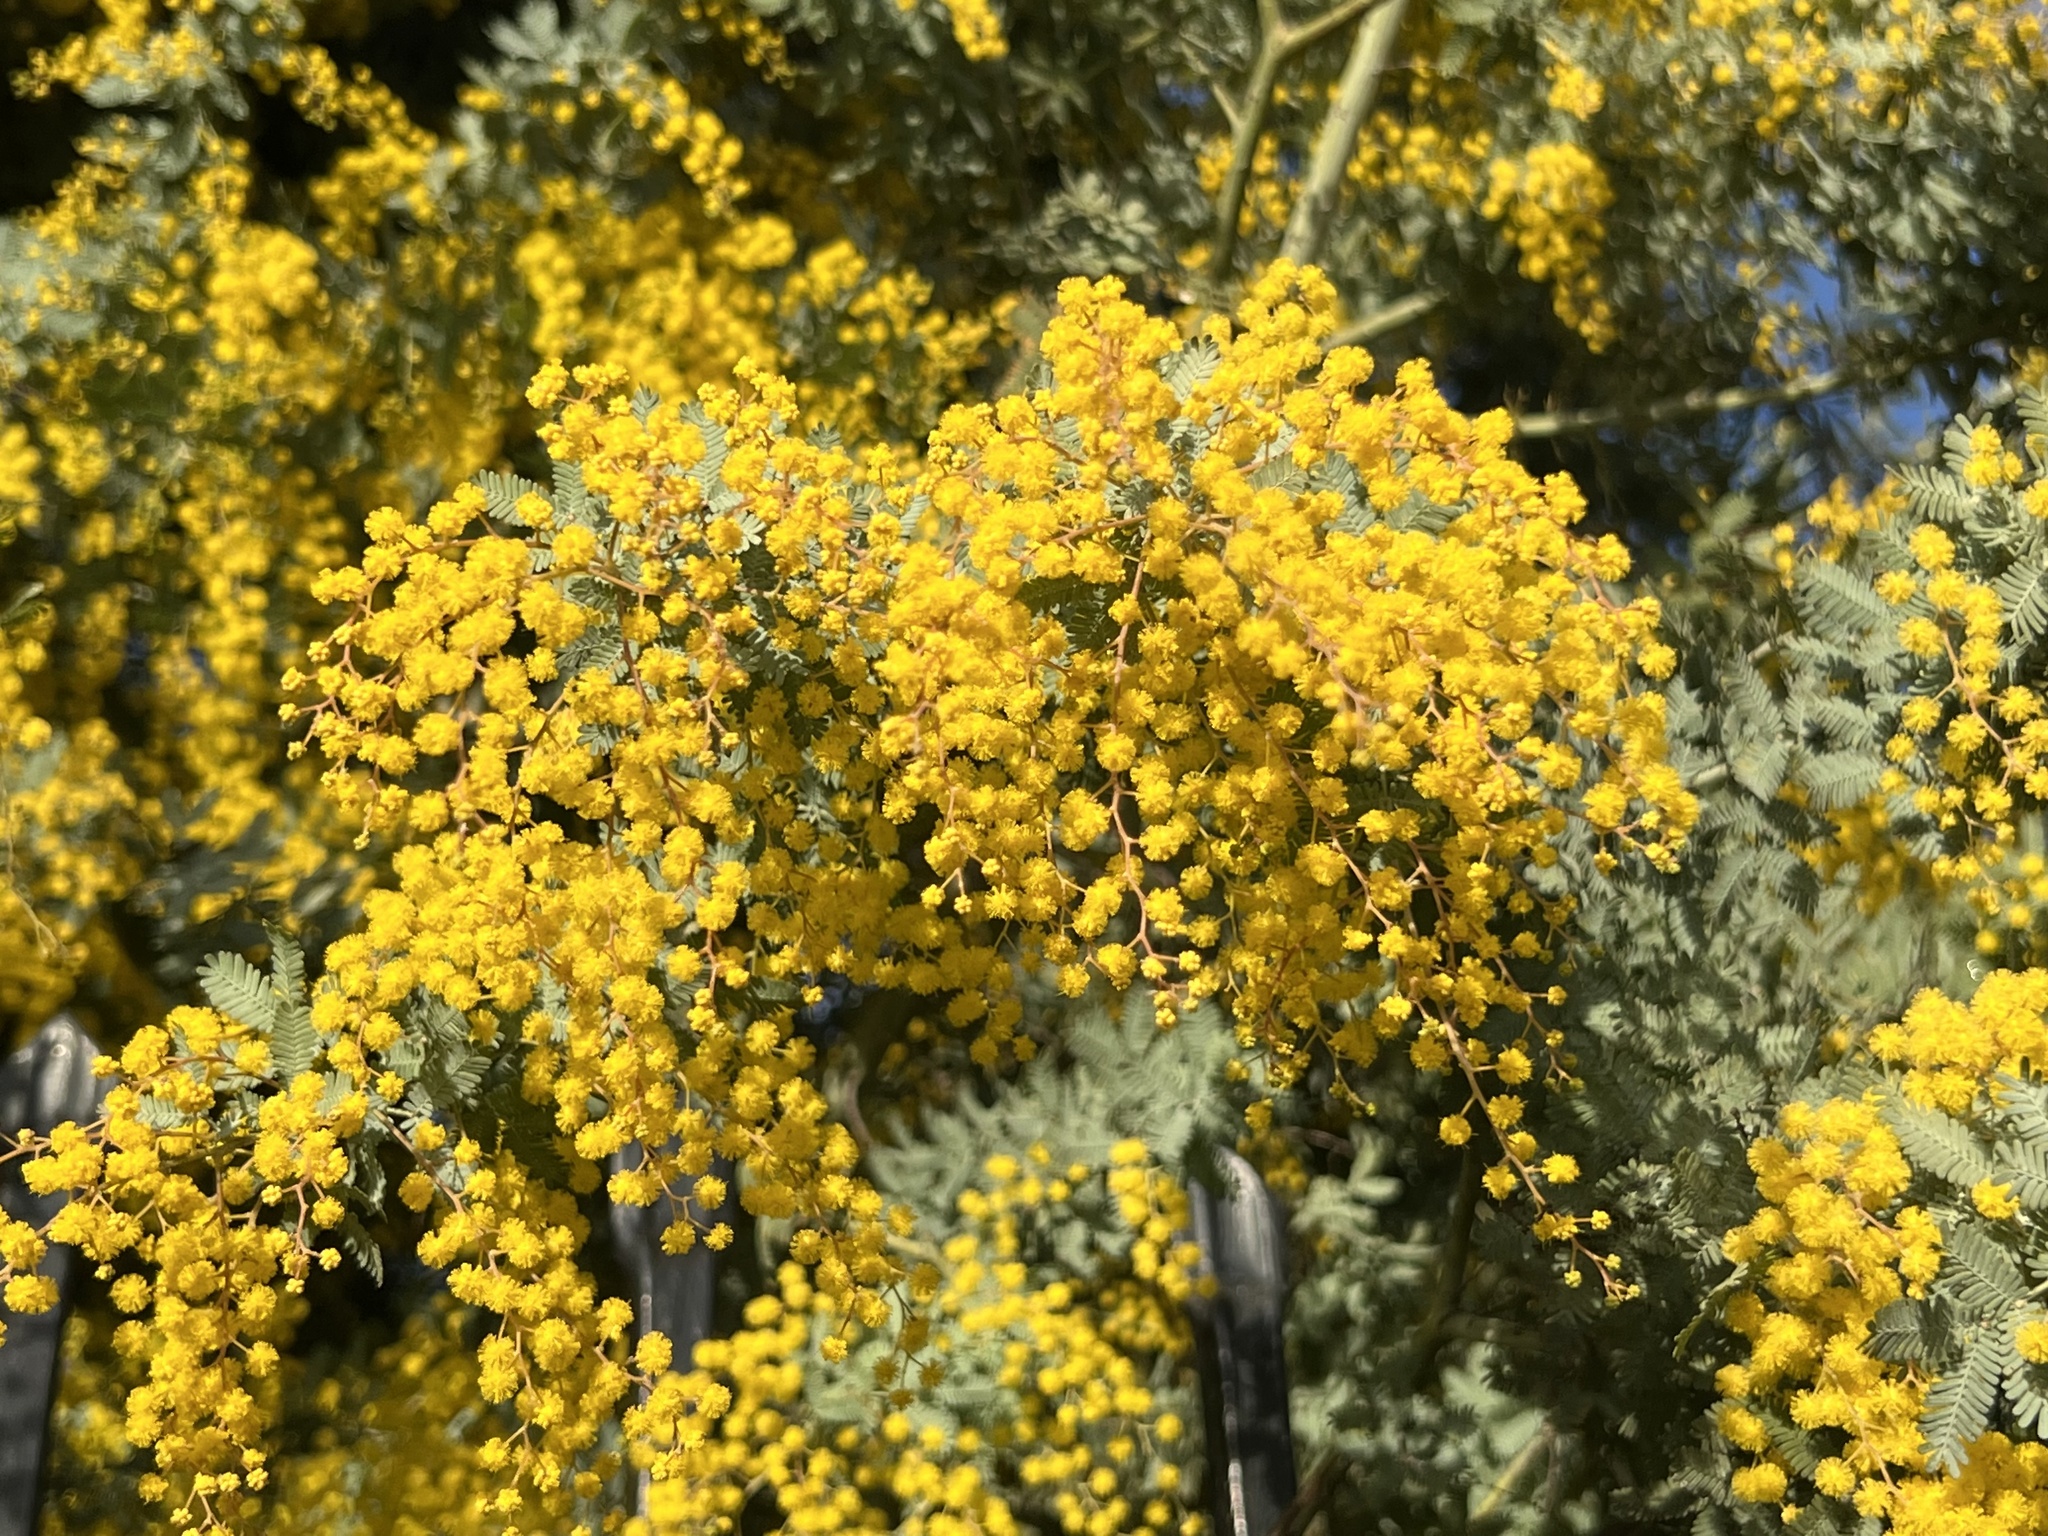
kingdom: Plantae
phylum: Tracheophyta
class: Magnoliopsida
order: Fabales
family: Fabaceae
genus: Acacia
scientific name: Acacia baileyana
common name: Cootamundra wattle
